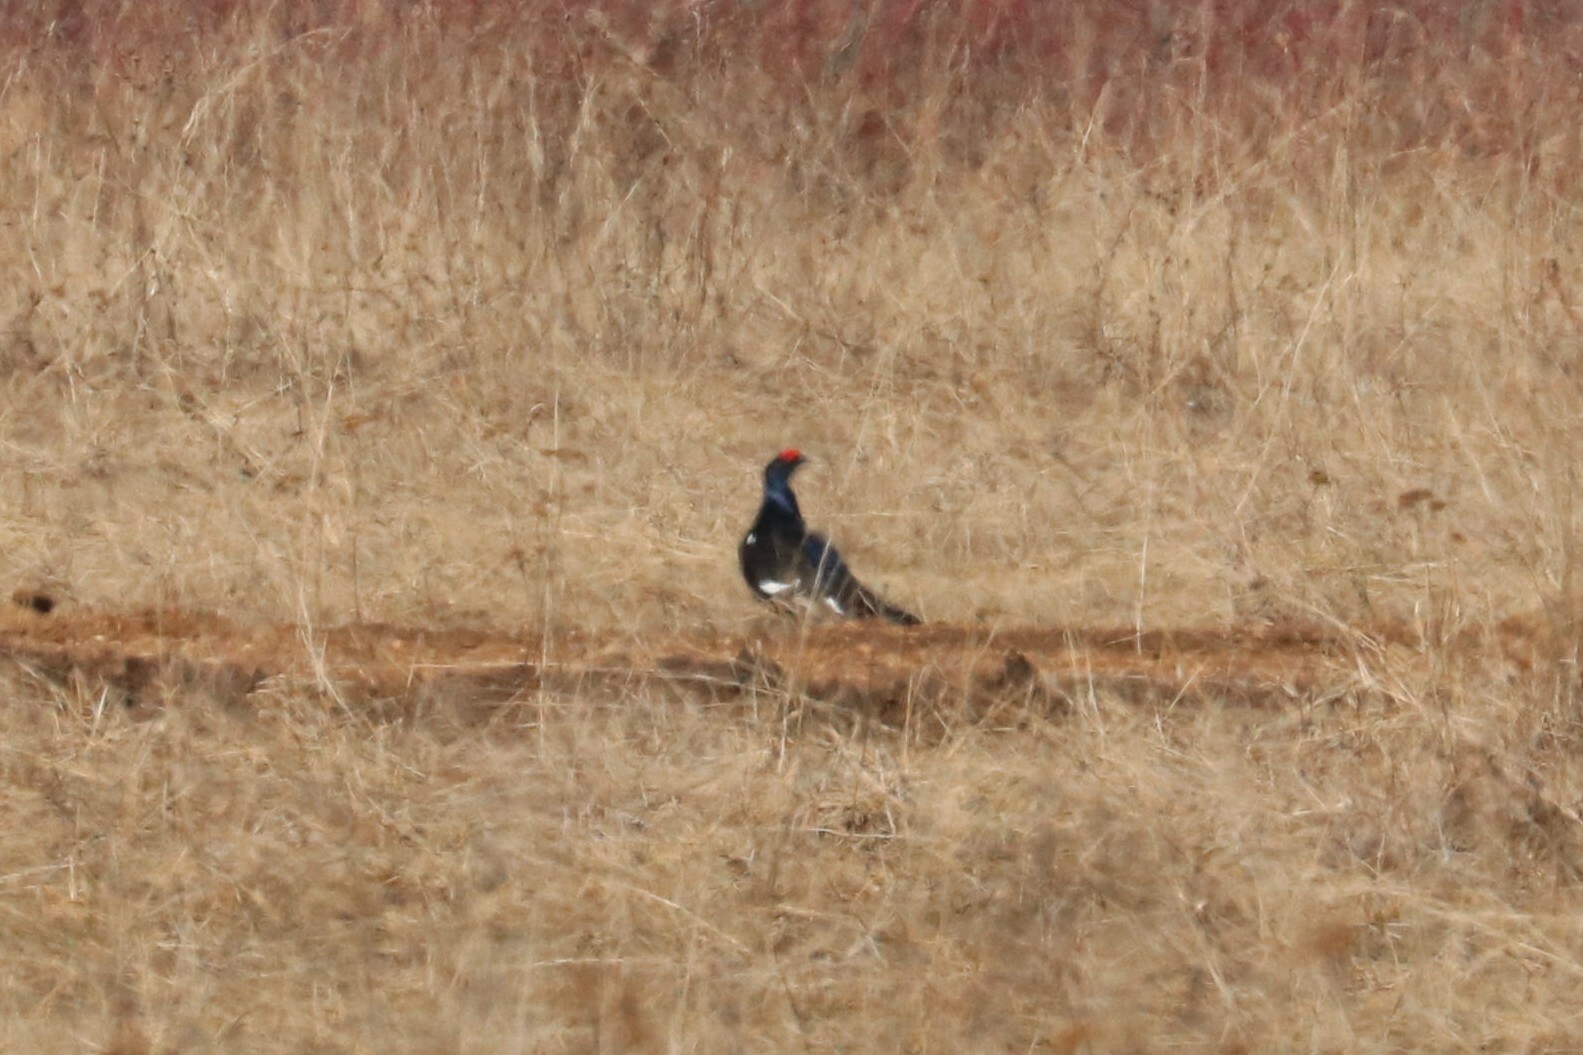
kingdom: Animalia
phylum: Chordata
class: Aves
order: Galliformes
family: Phasianidae
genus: Lyrurus
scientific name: Lyrurus tetrix
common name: Black grouse
